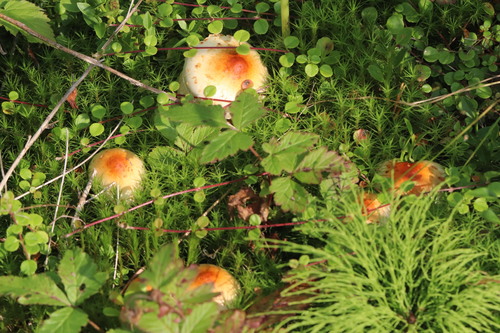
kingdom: Fungi
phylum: Basidiomycota
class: Agaricomycetes
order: Agaricales
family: Strophariaceae
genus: Pholiota
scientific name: Pholiota lubrica
